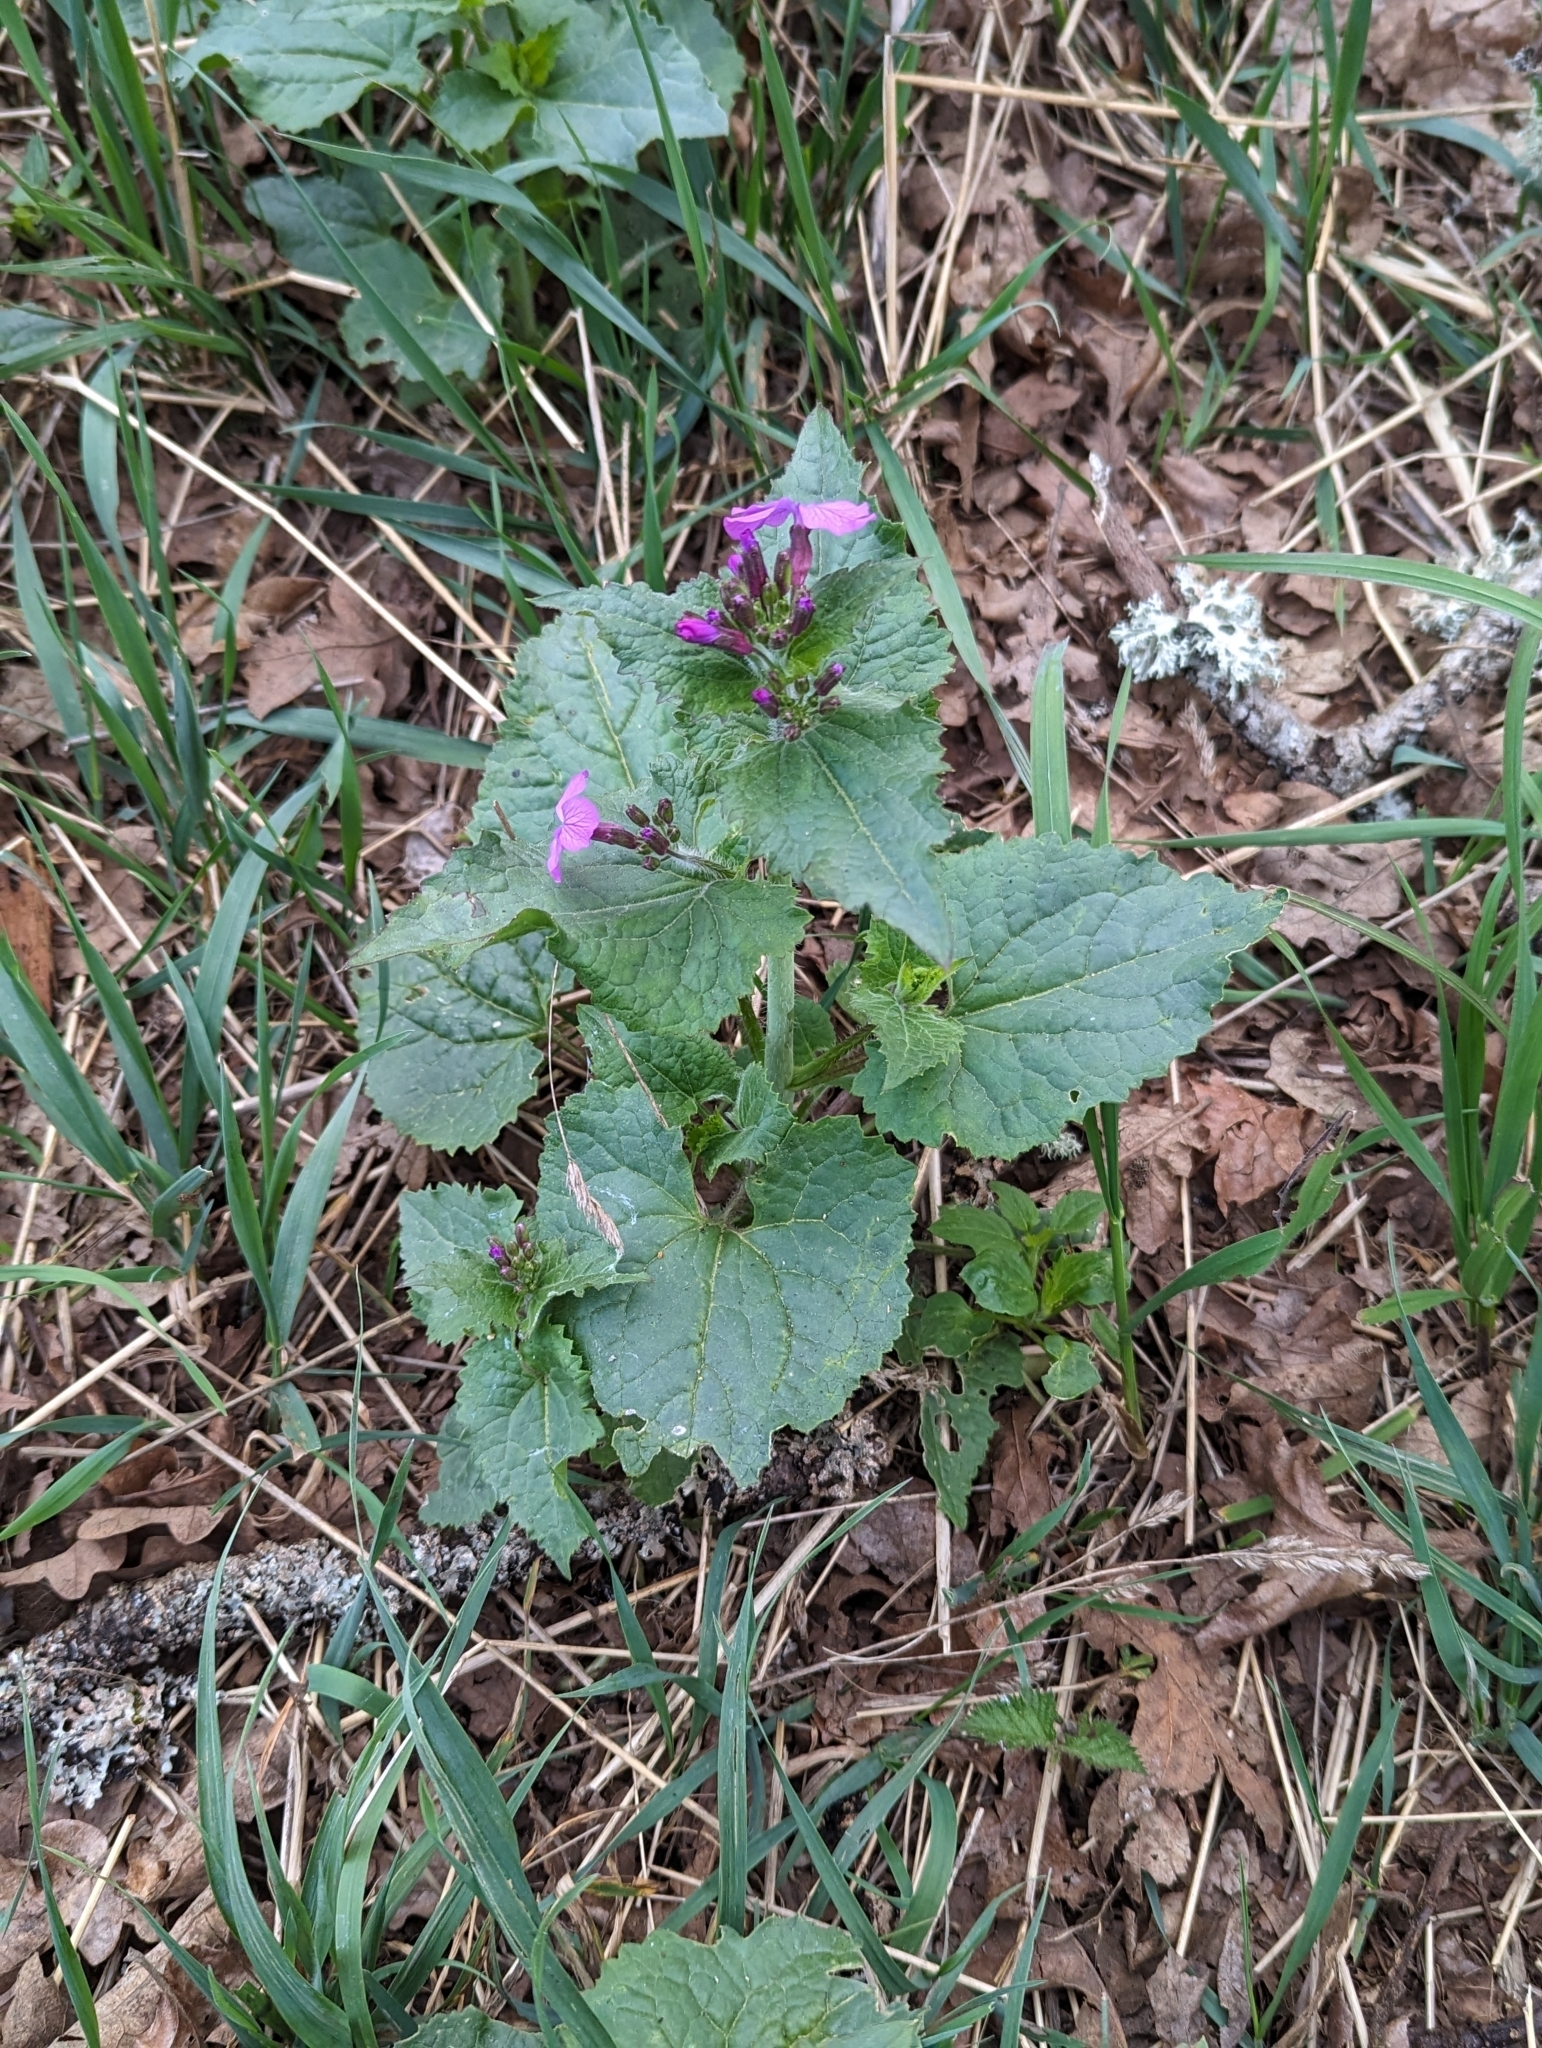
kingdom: Plantae
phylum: Tracheophyta
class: Magnoliopsida
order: Brassicales
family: Brassicaceae
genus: Lunaria
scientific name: Lunaria annua
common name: Honesty
